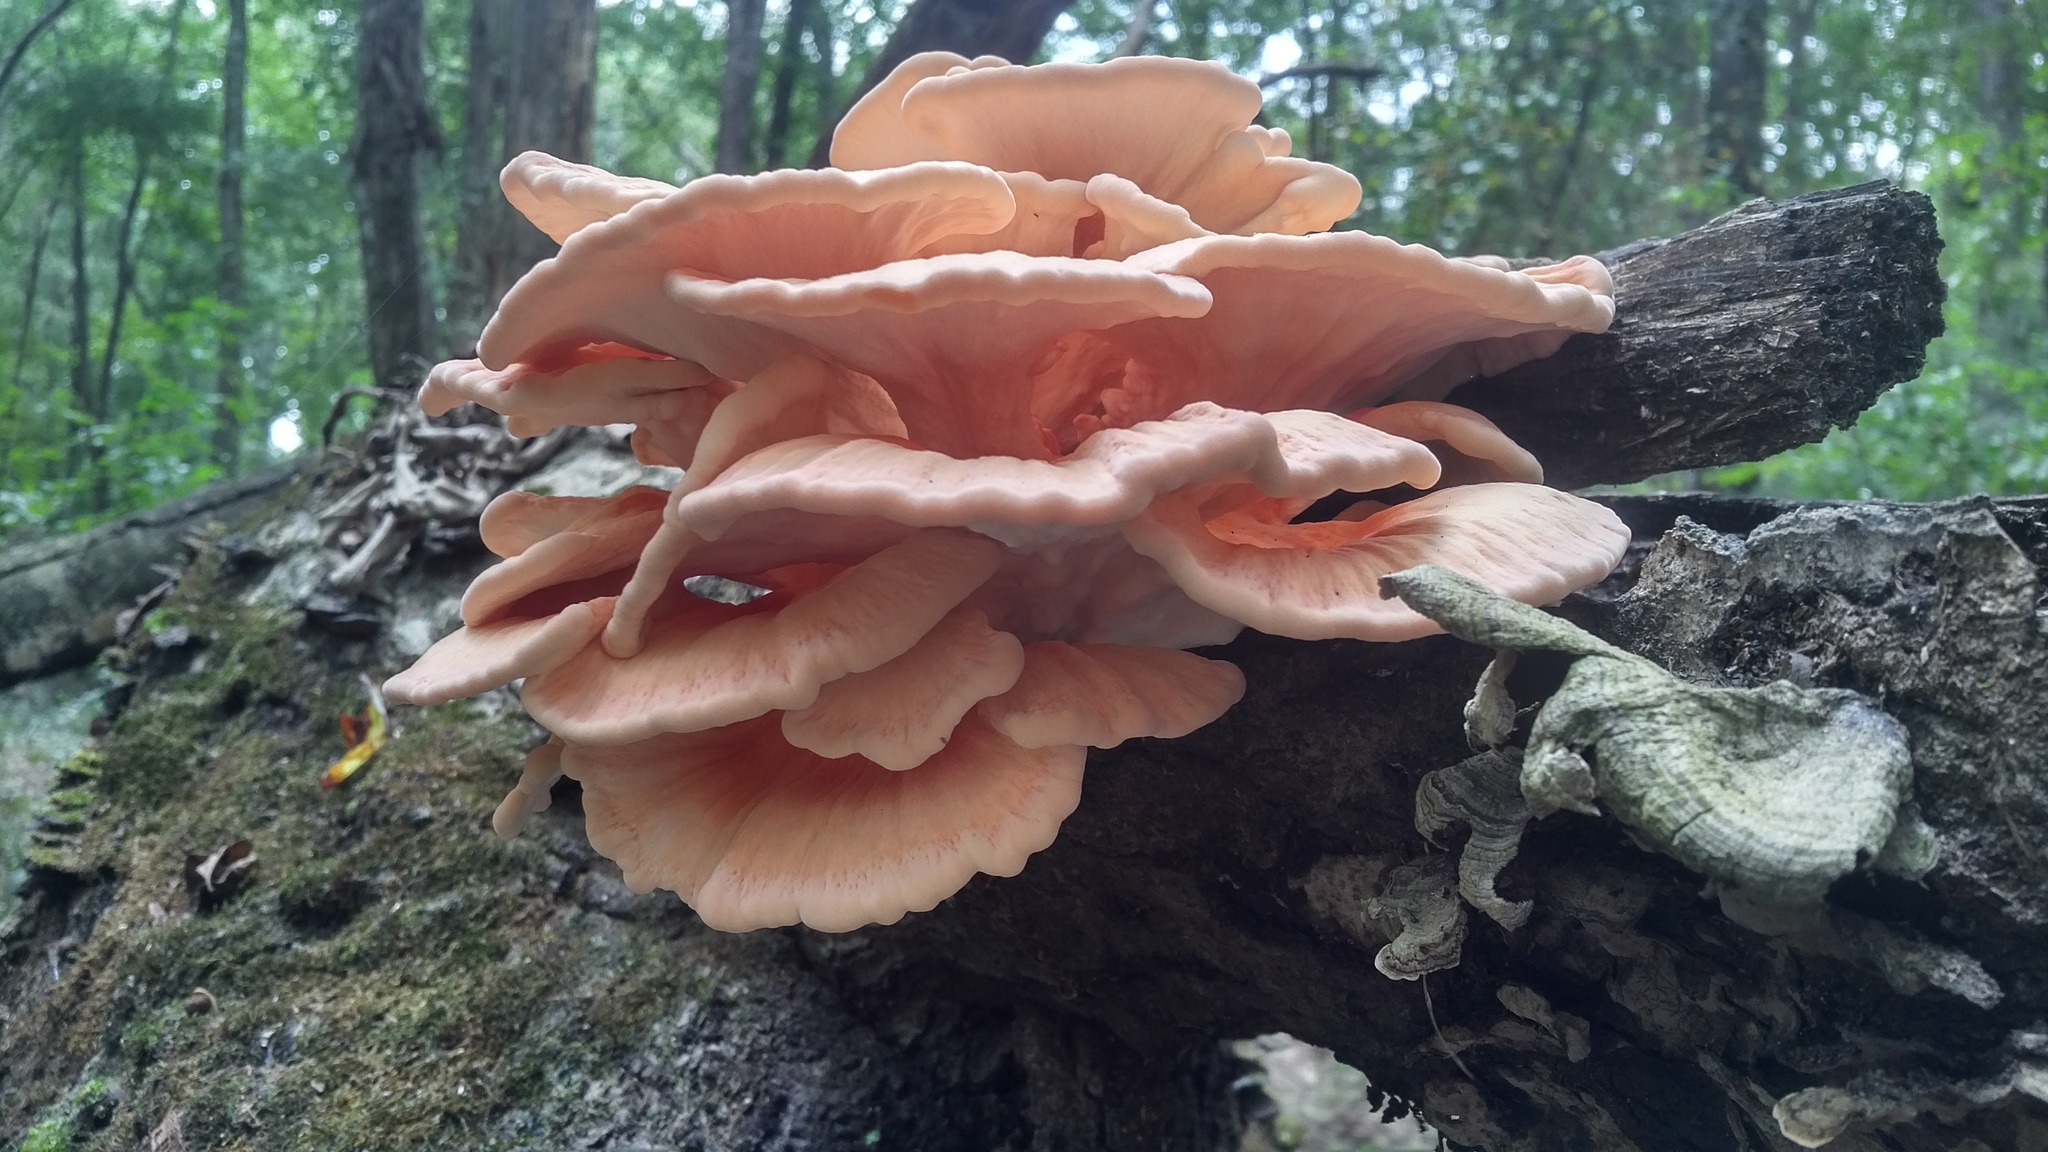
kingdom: Fungi
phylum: Basidiomycota
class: Agaricomycetes
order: Polyporales
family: Laetiporaceae
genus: Laetiporus
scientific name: Laetiporus sulphureus
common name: Chicken of the woods
